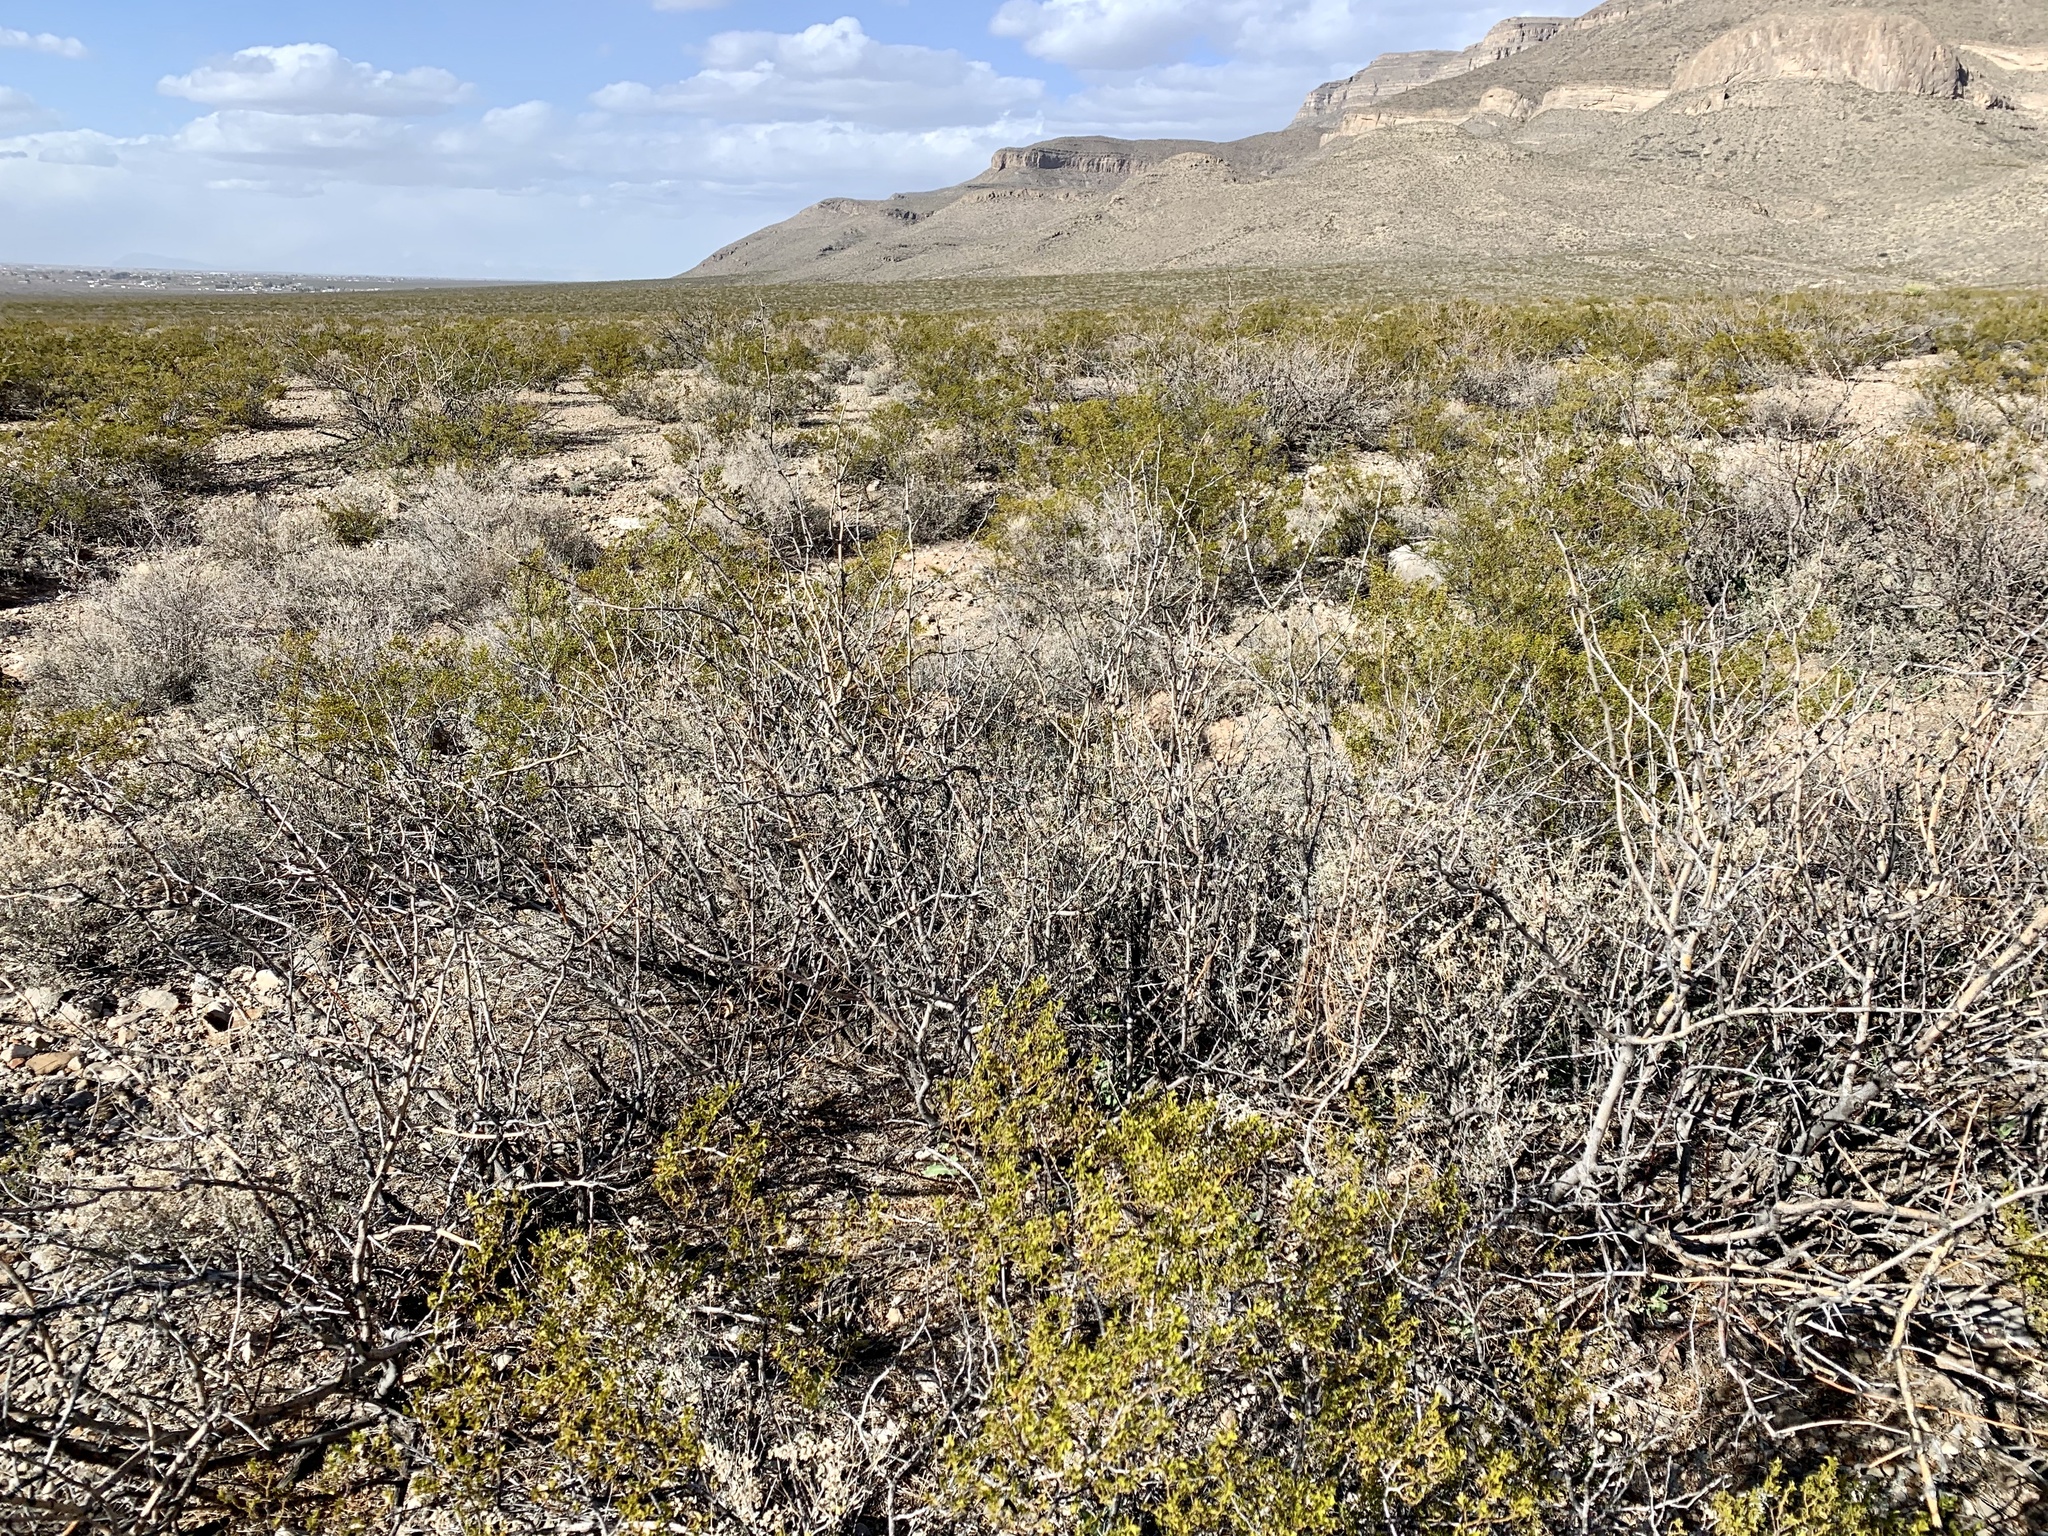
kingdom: Plantae
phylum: Tracheophyta
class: Magnoliopsida
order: Fabales
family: Fabaceae
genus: Prosopis
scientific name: Prosopis glandulosa
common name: Honey mesquite
